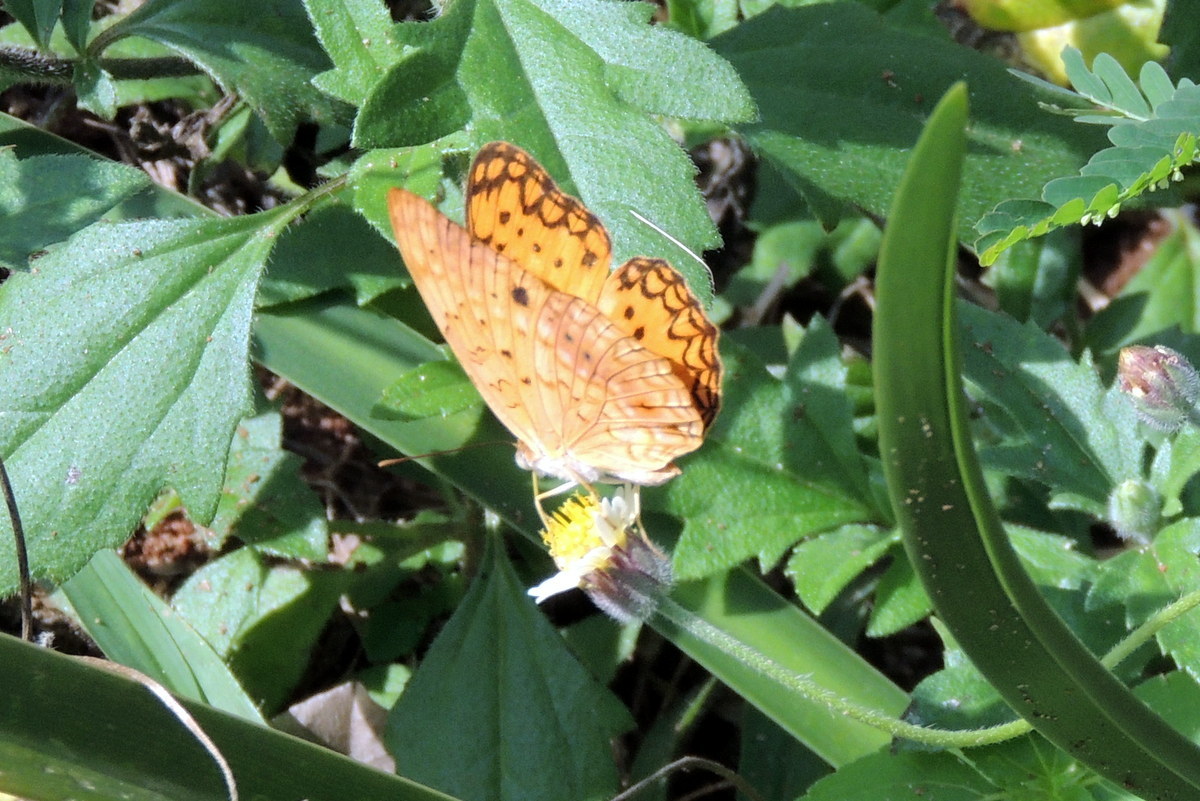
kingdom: Animalia
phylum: Arthropoda
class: Insecta
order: Lepidoptera
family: Nymphalidae
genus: Phalanta
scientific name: Phalanta phalantha
